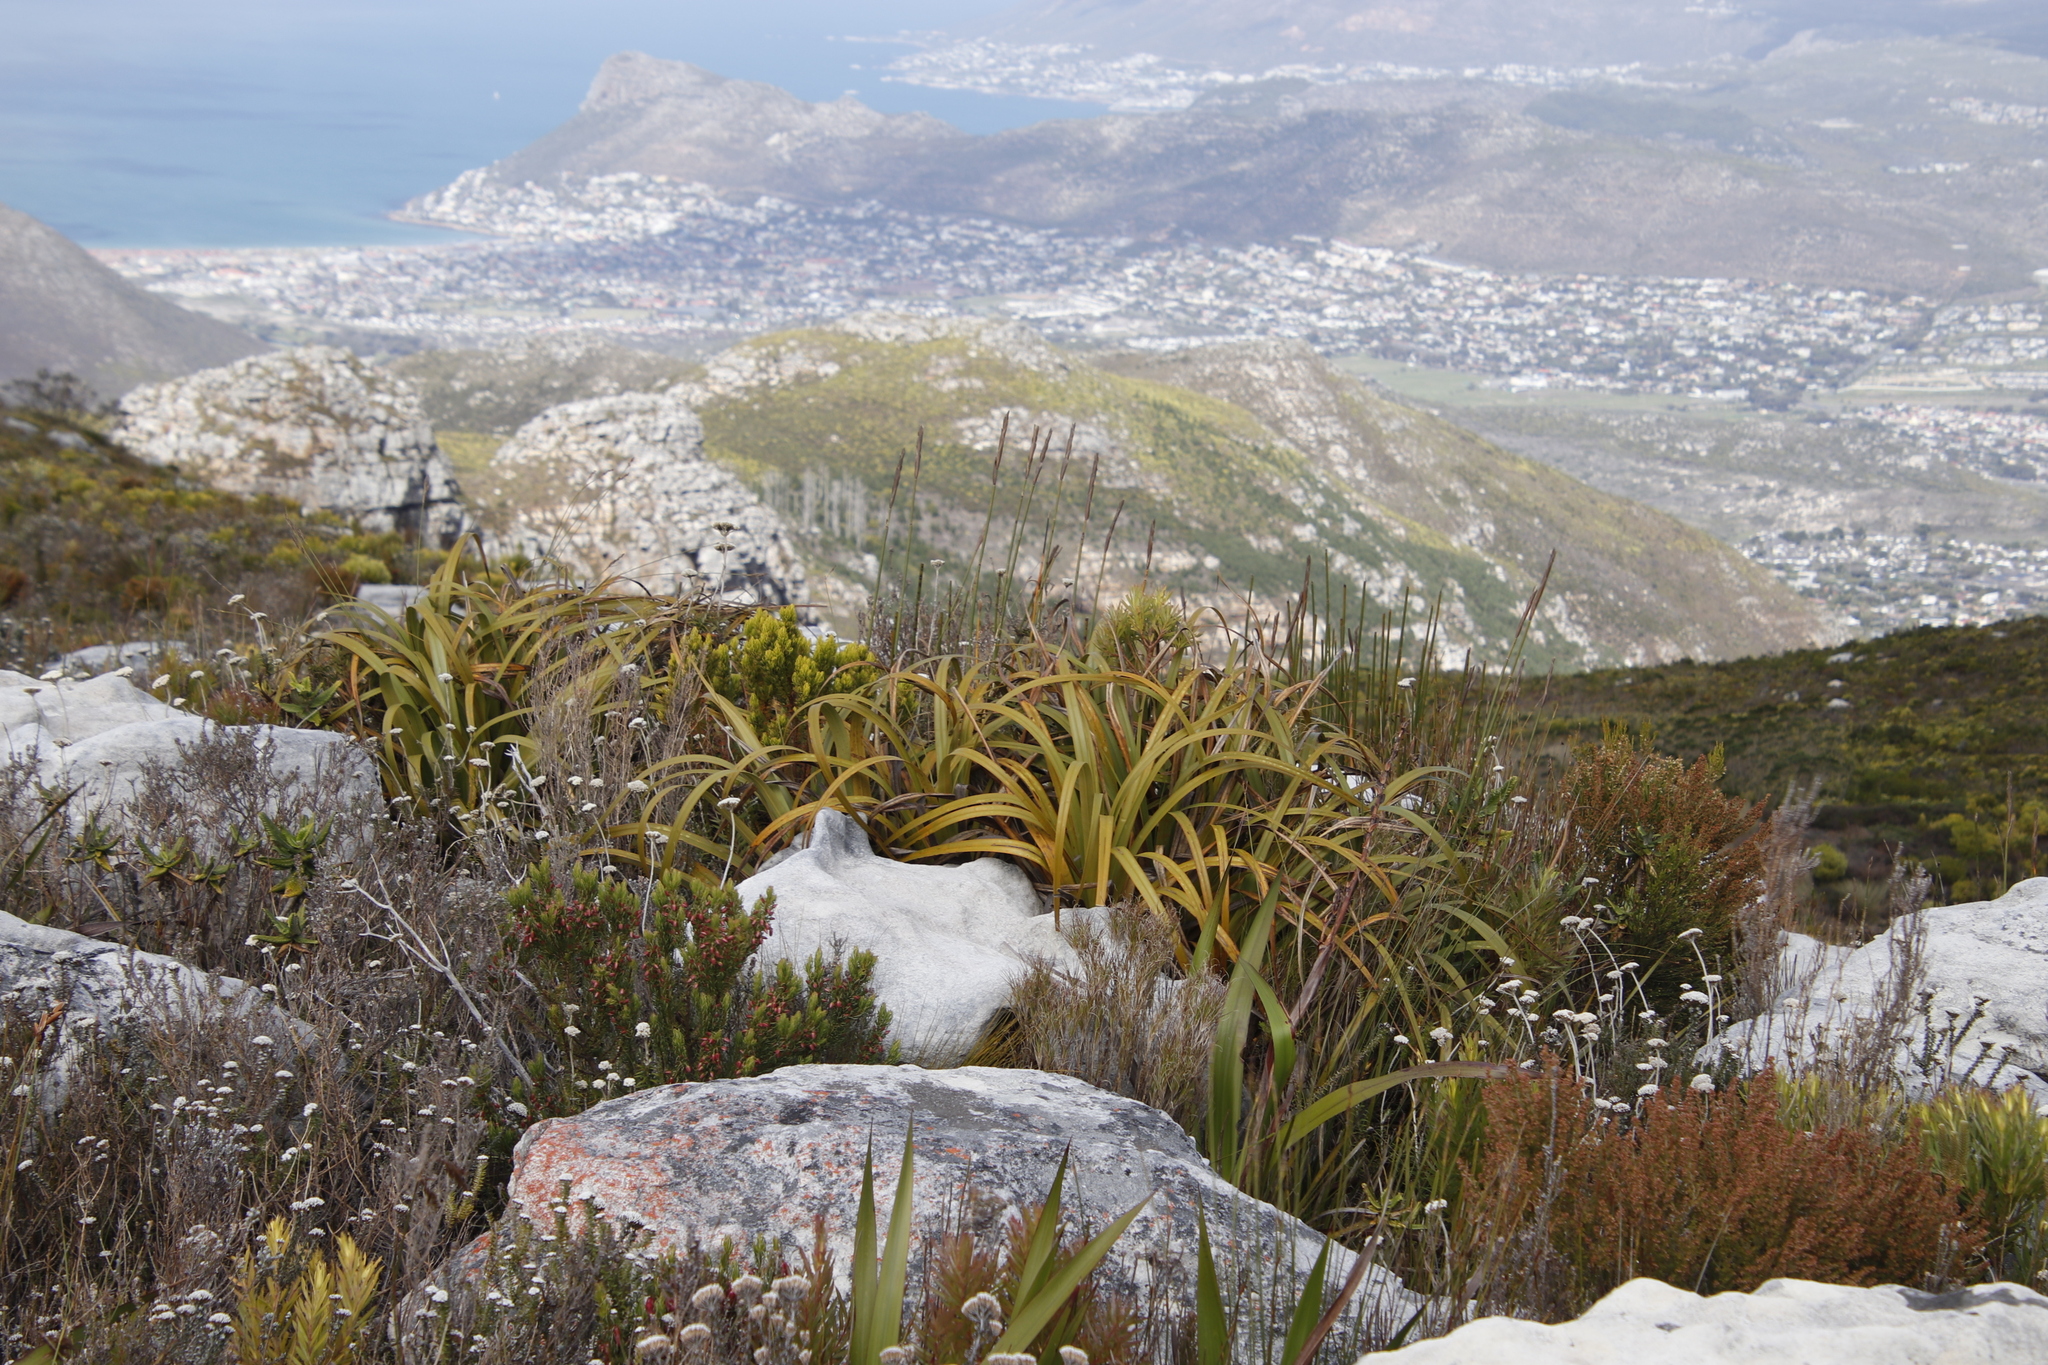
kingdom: Plantae
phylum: Tracheophyta
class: Liliopsida
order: Poales
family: Cyperaceae
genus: Tetraria
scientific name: Tetraria thermalis
